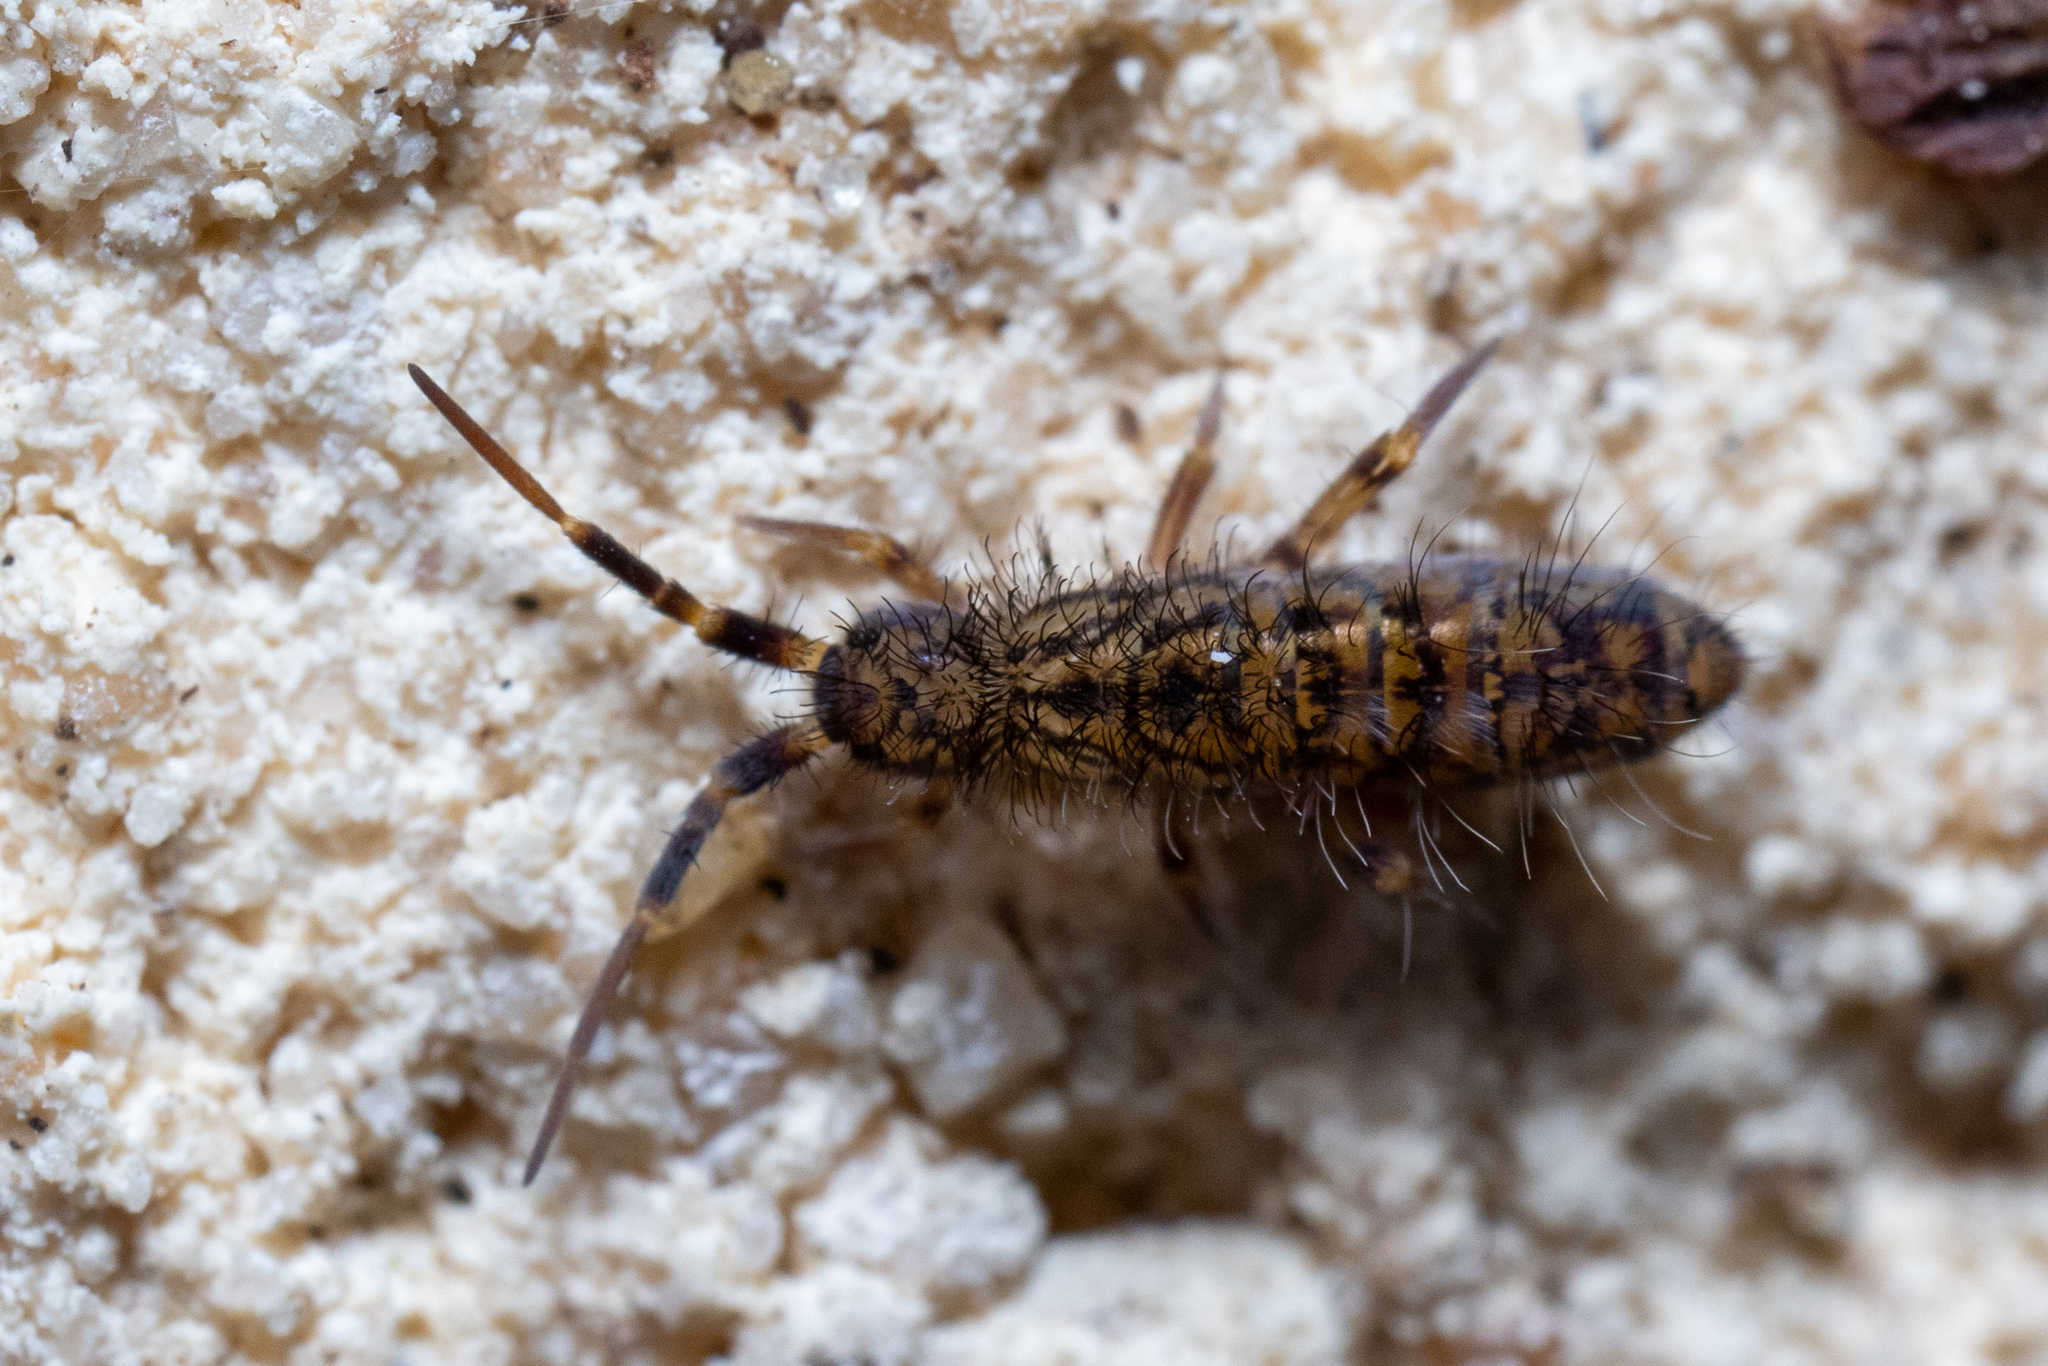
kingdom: Animalia
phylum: Arthropoda
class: Collembola
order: Entomobryomorpha
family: Orchesellidae
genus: Orchesella
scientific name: Orchesella villosa
